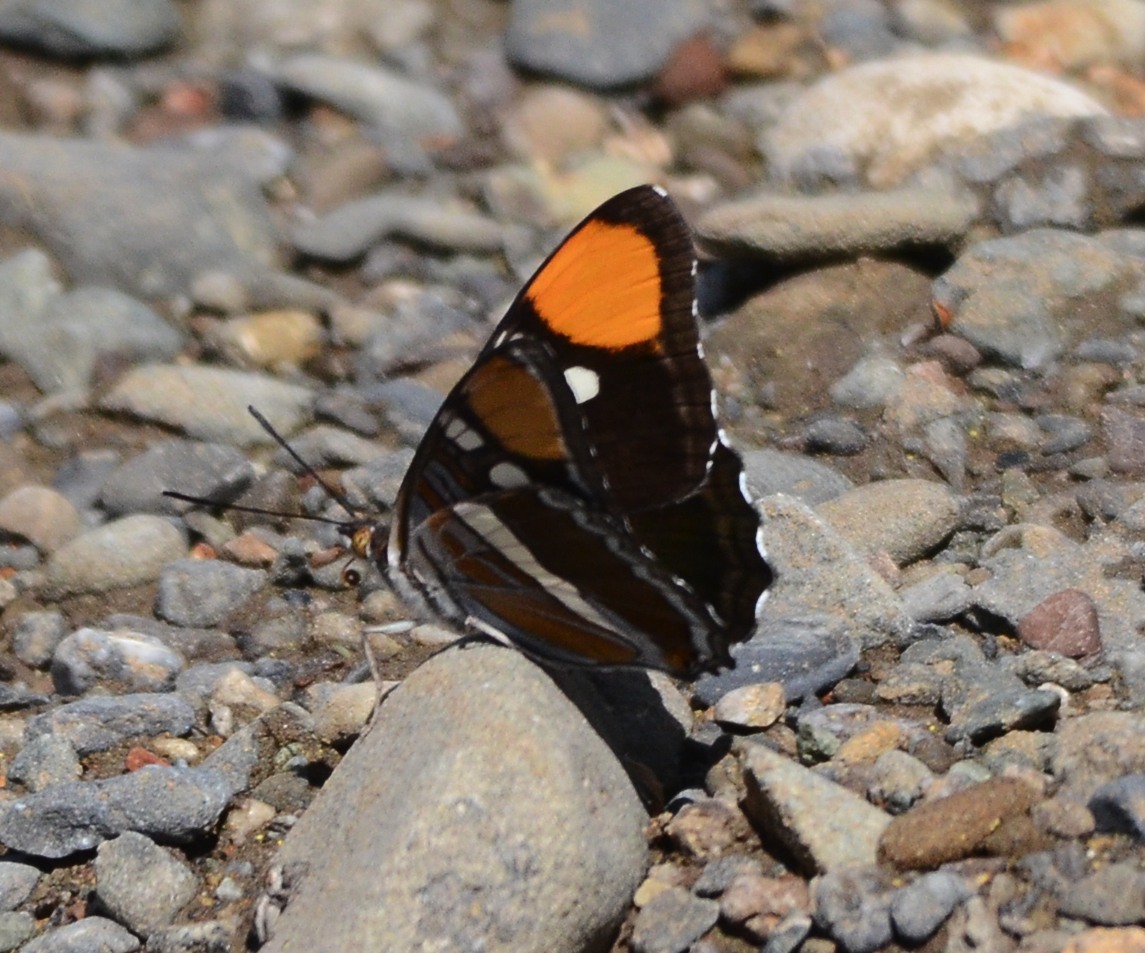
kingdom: Animalia
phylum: Arthropoda
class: Insecta
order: Lepidoptera
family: Nymphalidae
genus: Limenitis
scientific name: Limenitis bredowii
